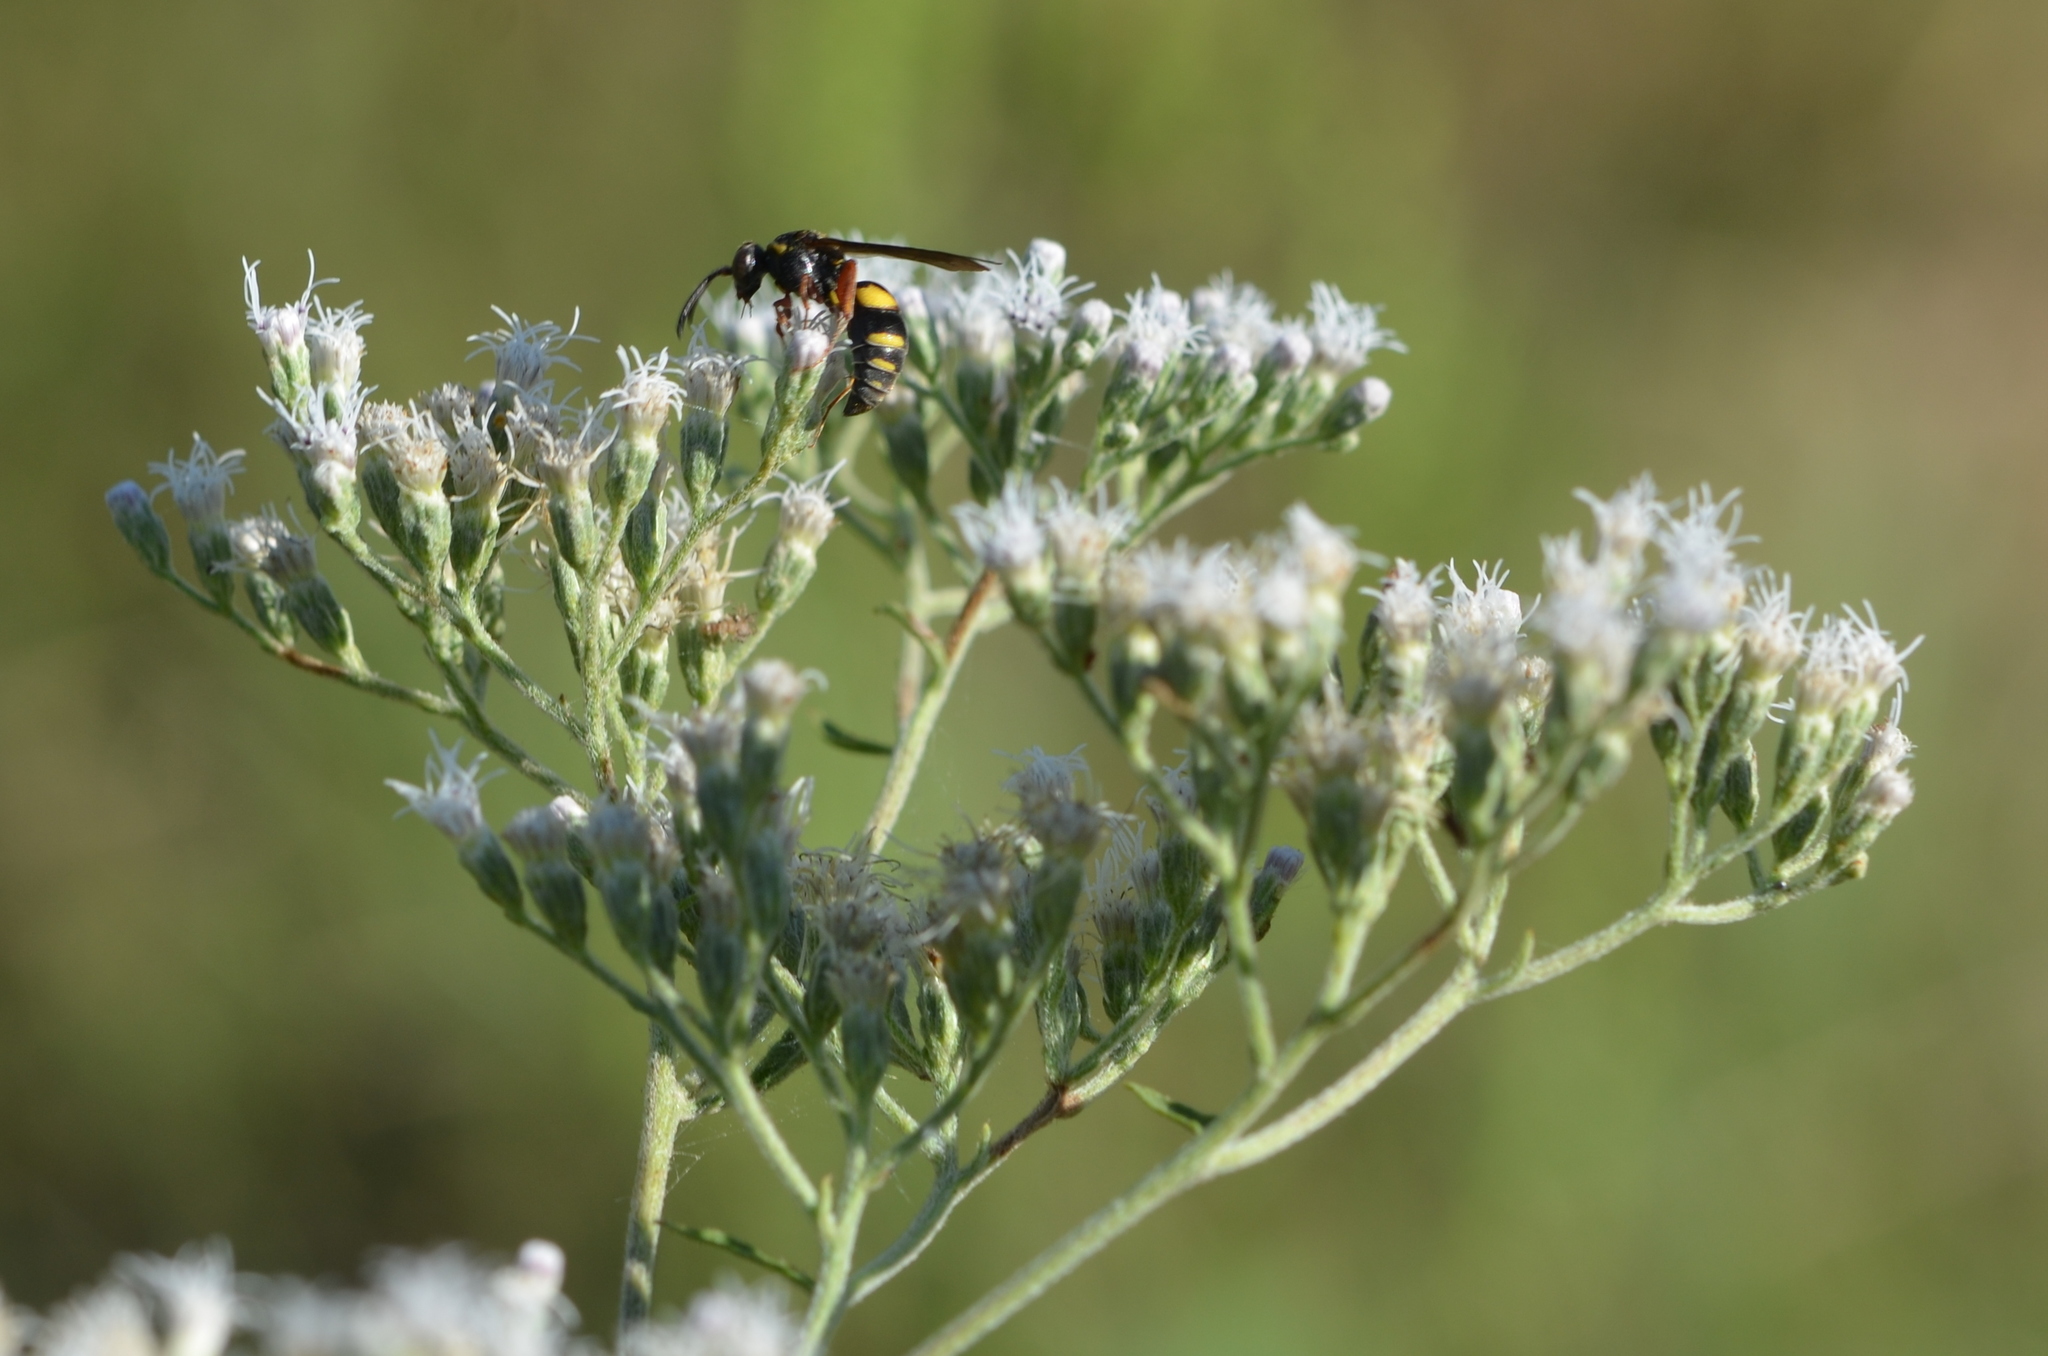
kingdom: Animalia
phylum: Arthropoda
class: Insecta
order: Hymenoptera
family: Crabronidae
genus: Nysson
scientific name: Nysson plagiatus
